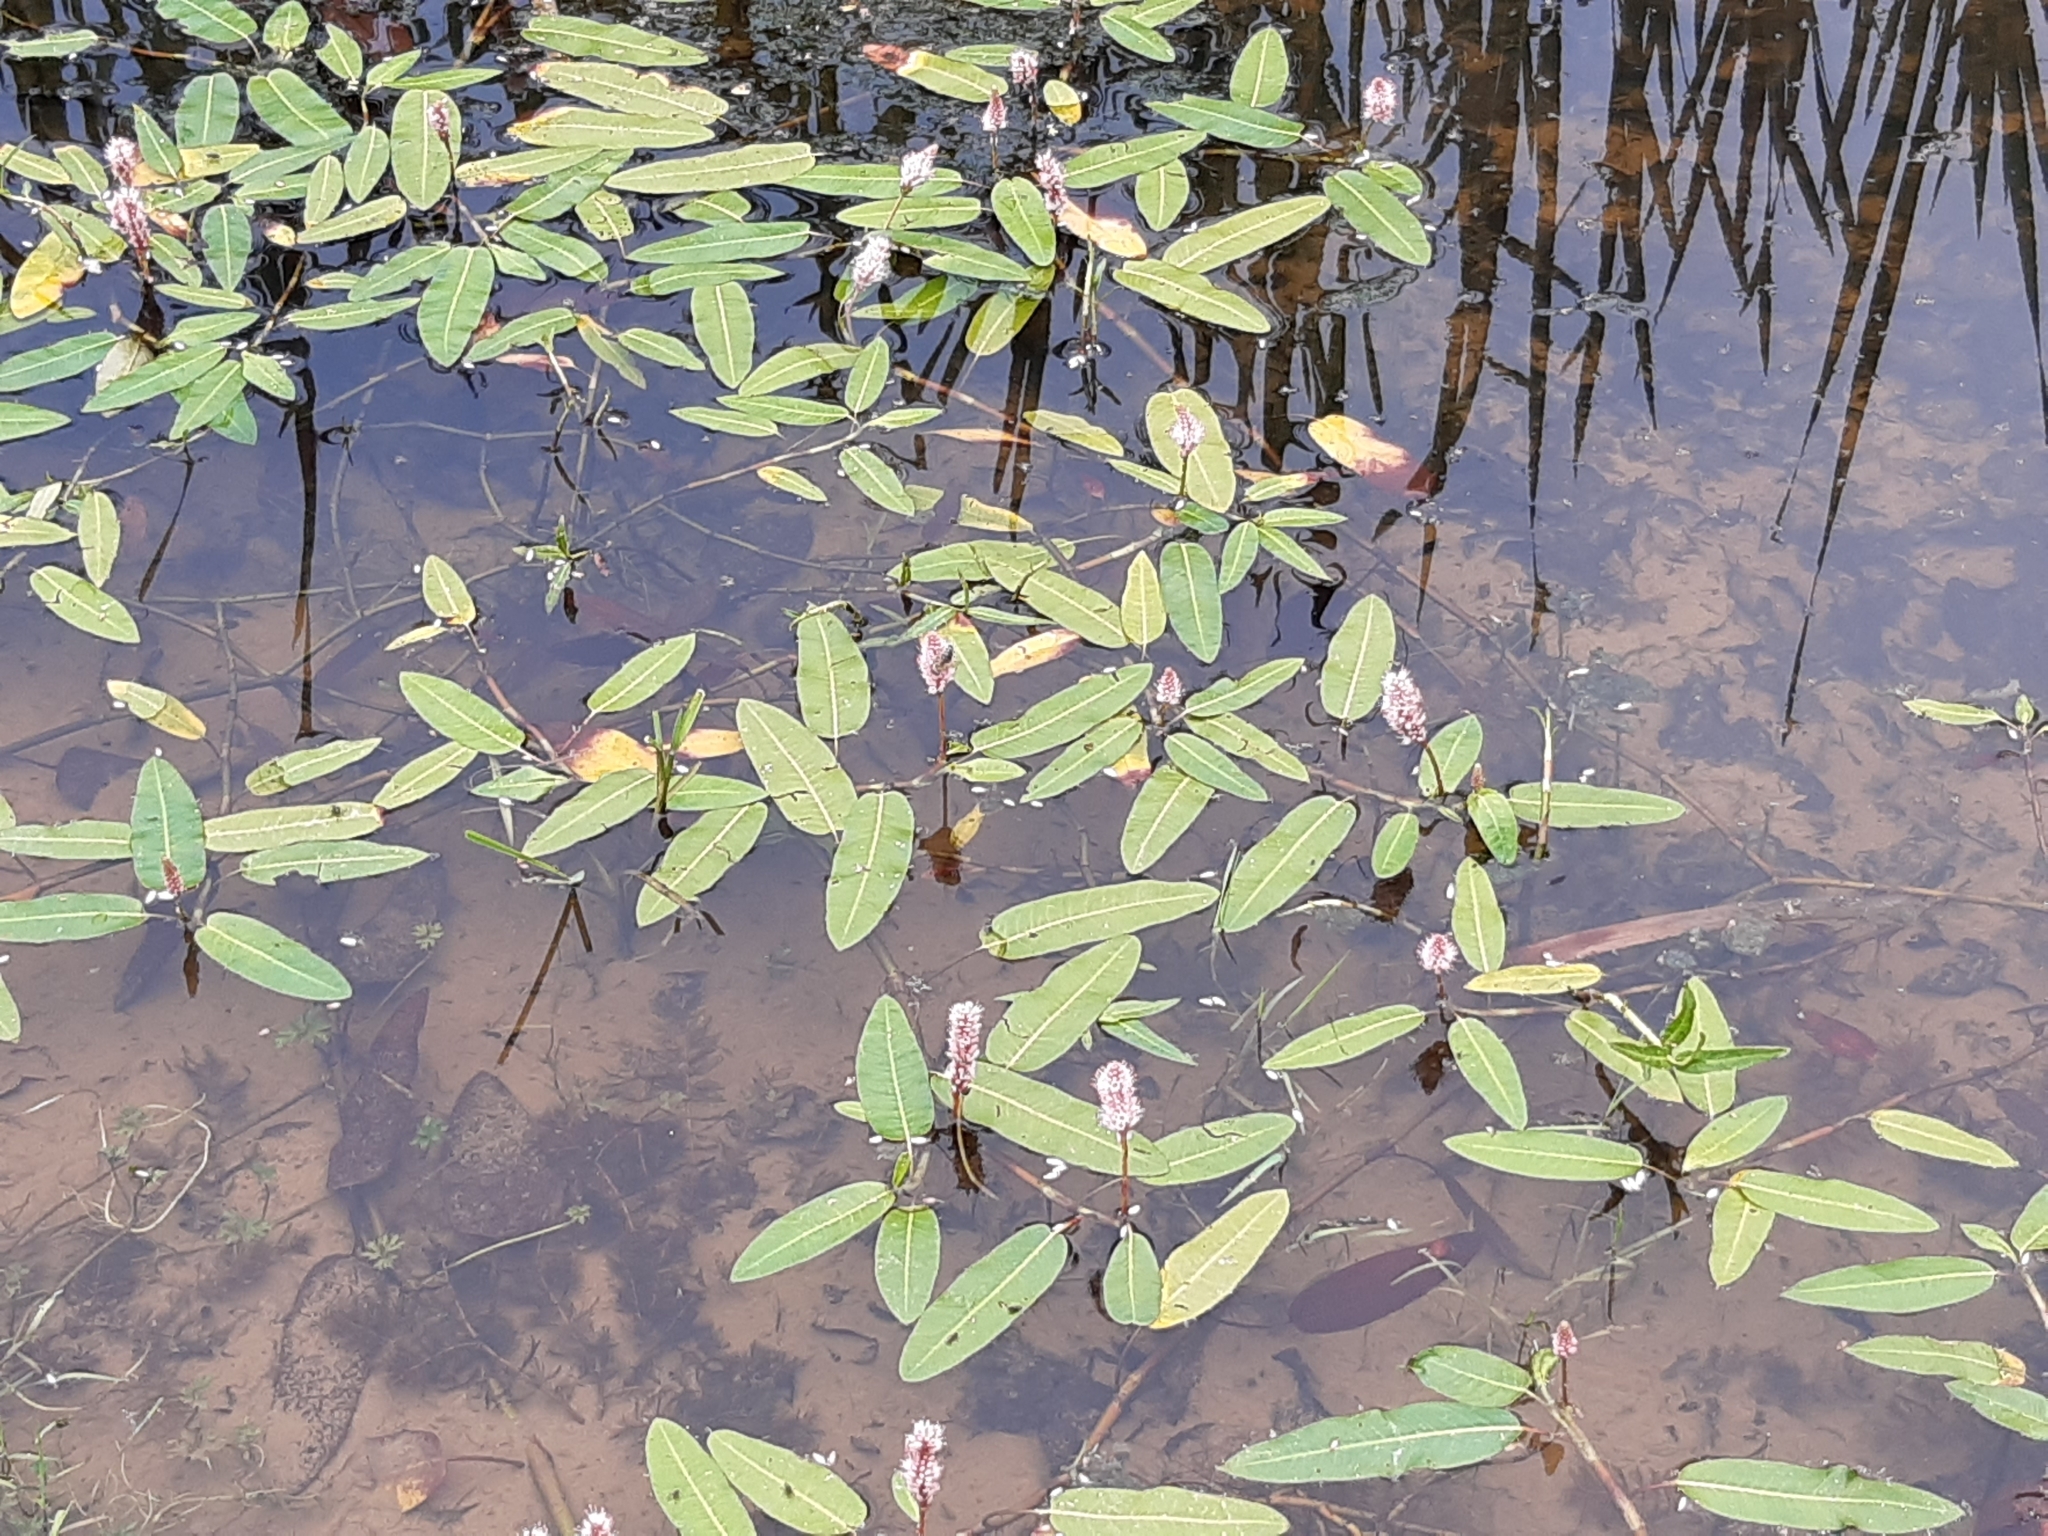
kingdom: Plantae
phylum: Tracheophyta
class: Magnoliopsida
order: Caryophyllales
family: Polygonaceae
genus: Persicaria
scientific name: Persicaria amphibia
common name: Amphibious bistort
